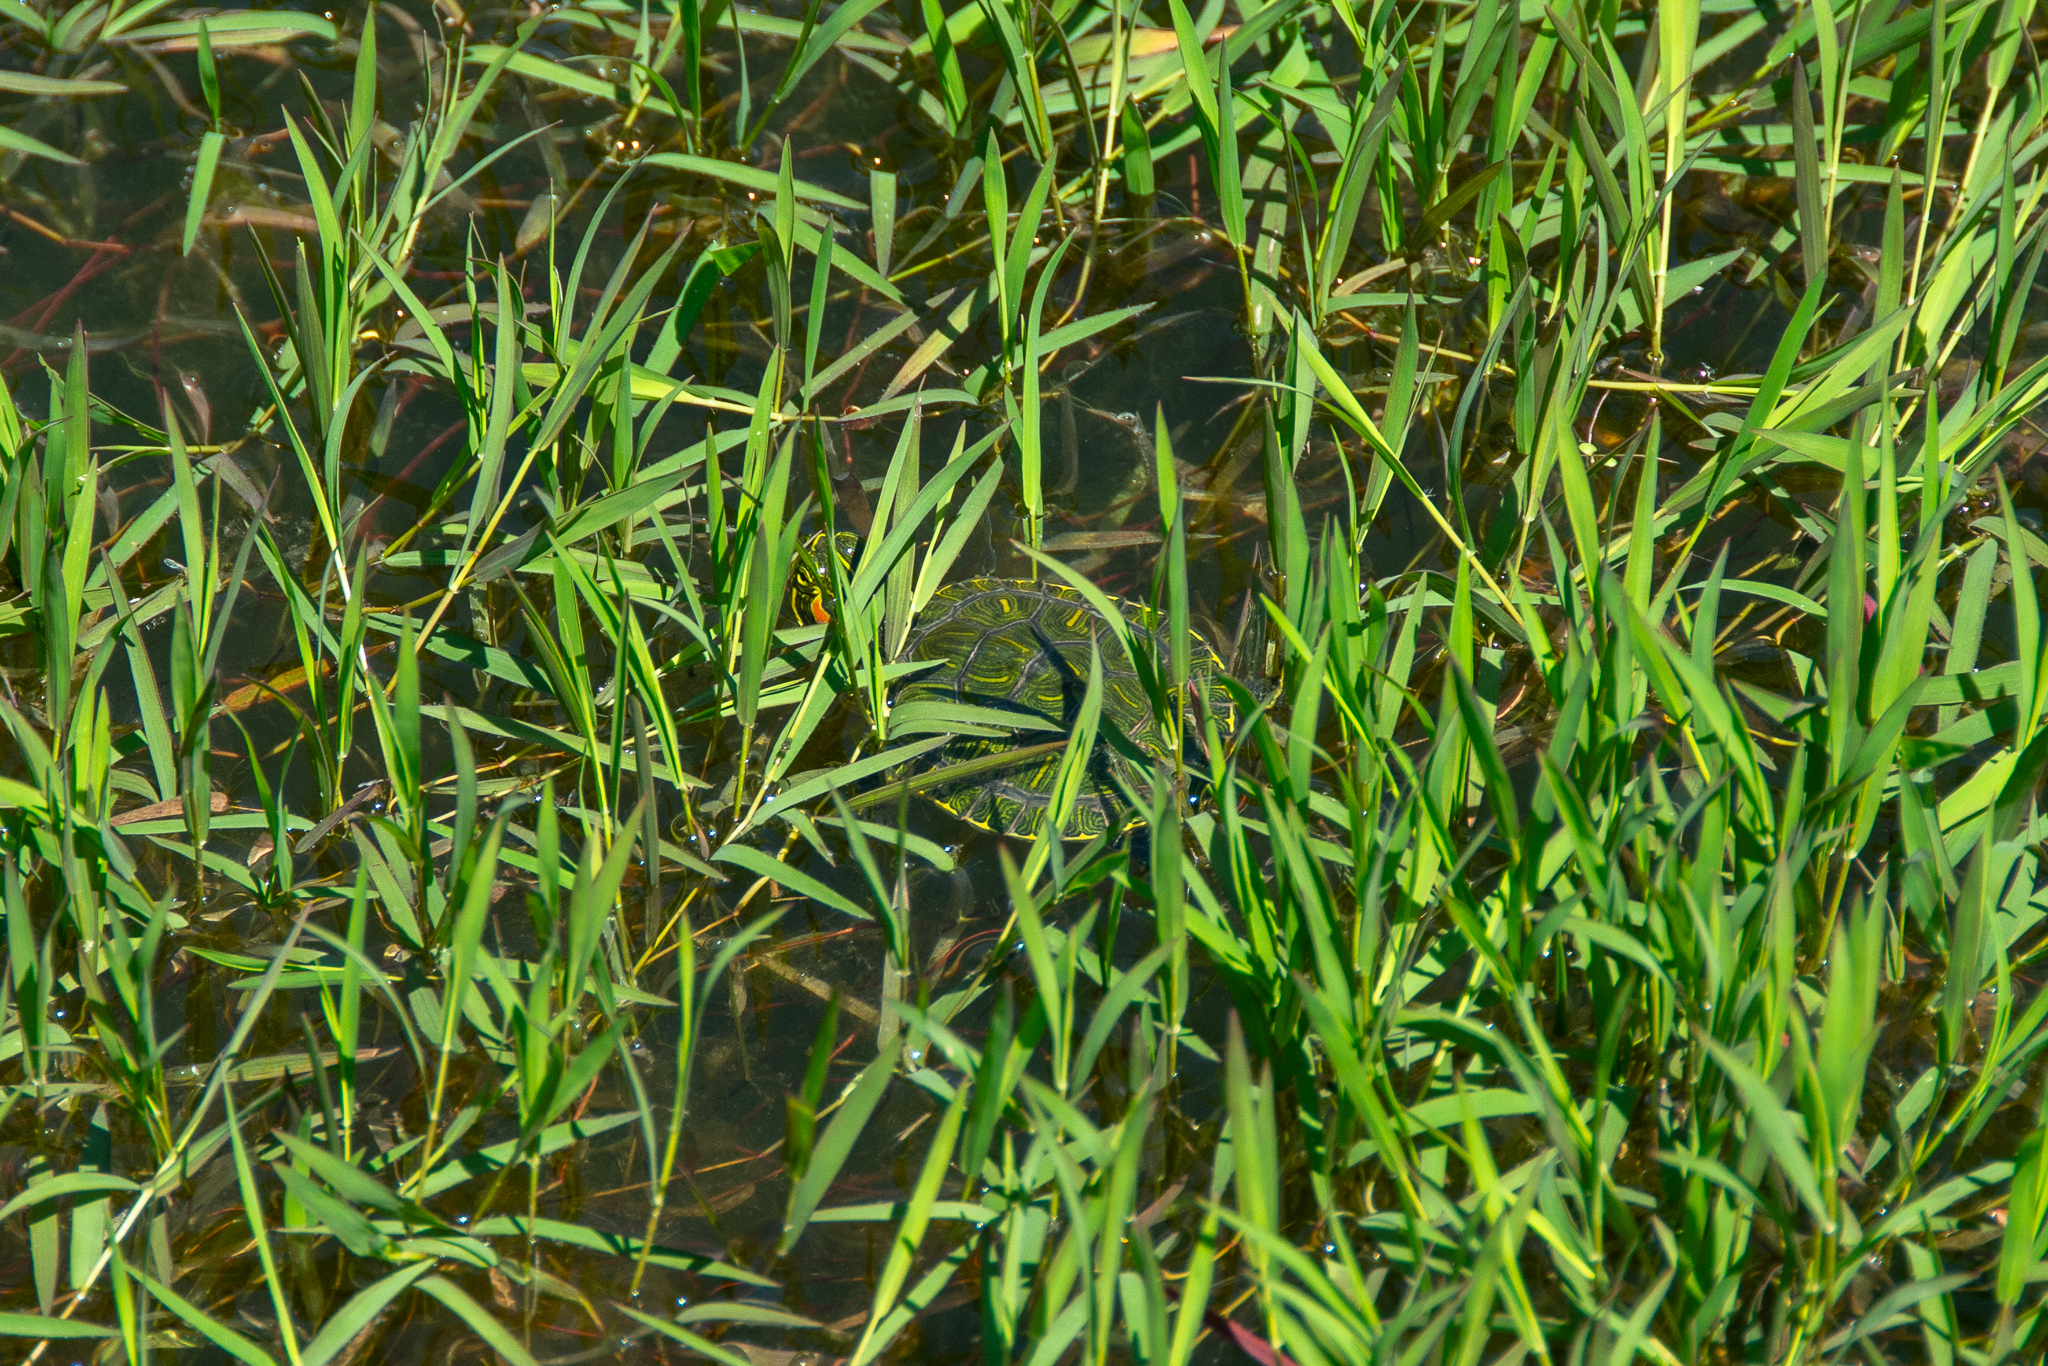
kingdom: Animalia
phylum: Chordata
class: Testudines
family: Emydidae
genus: Trachemys
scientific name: Trachemys scripta
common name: Slider
